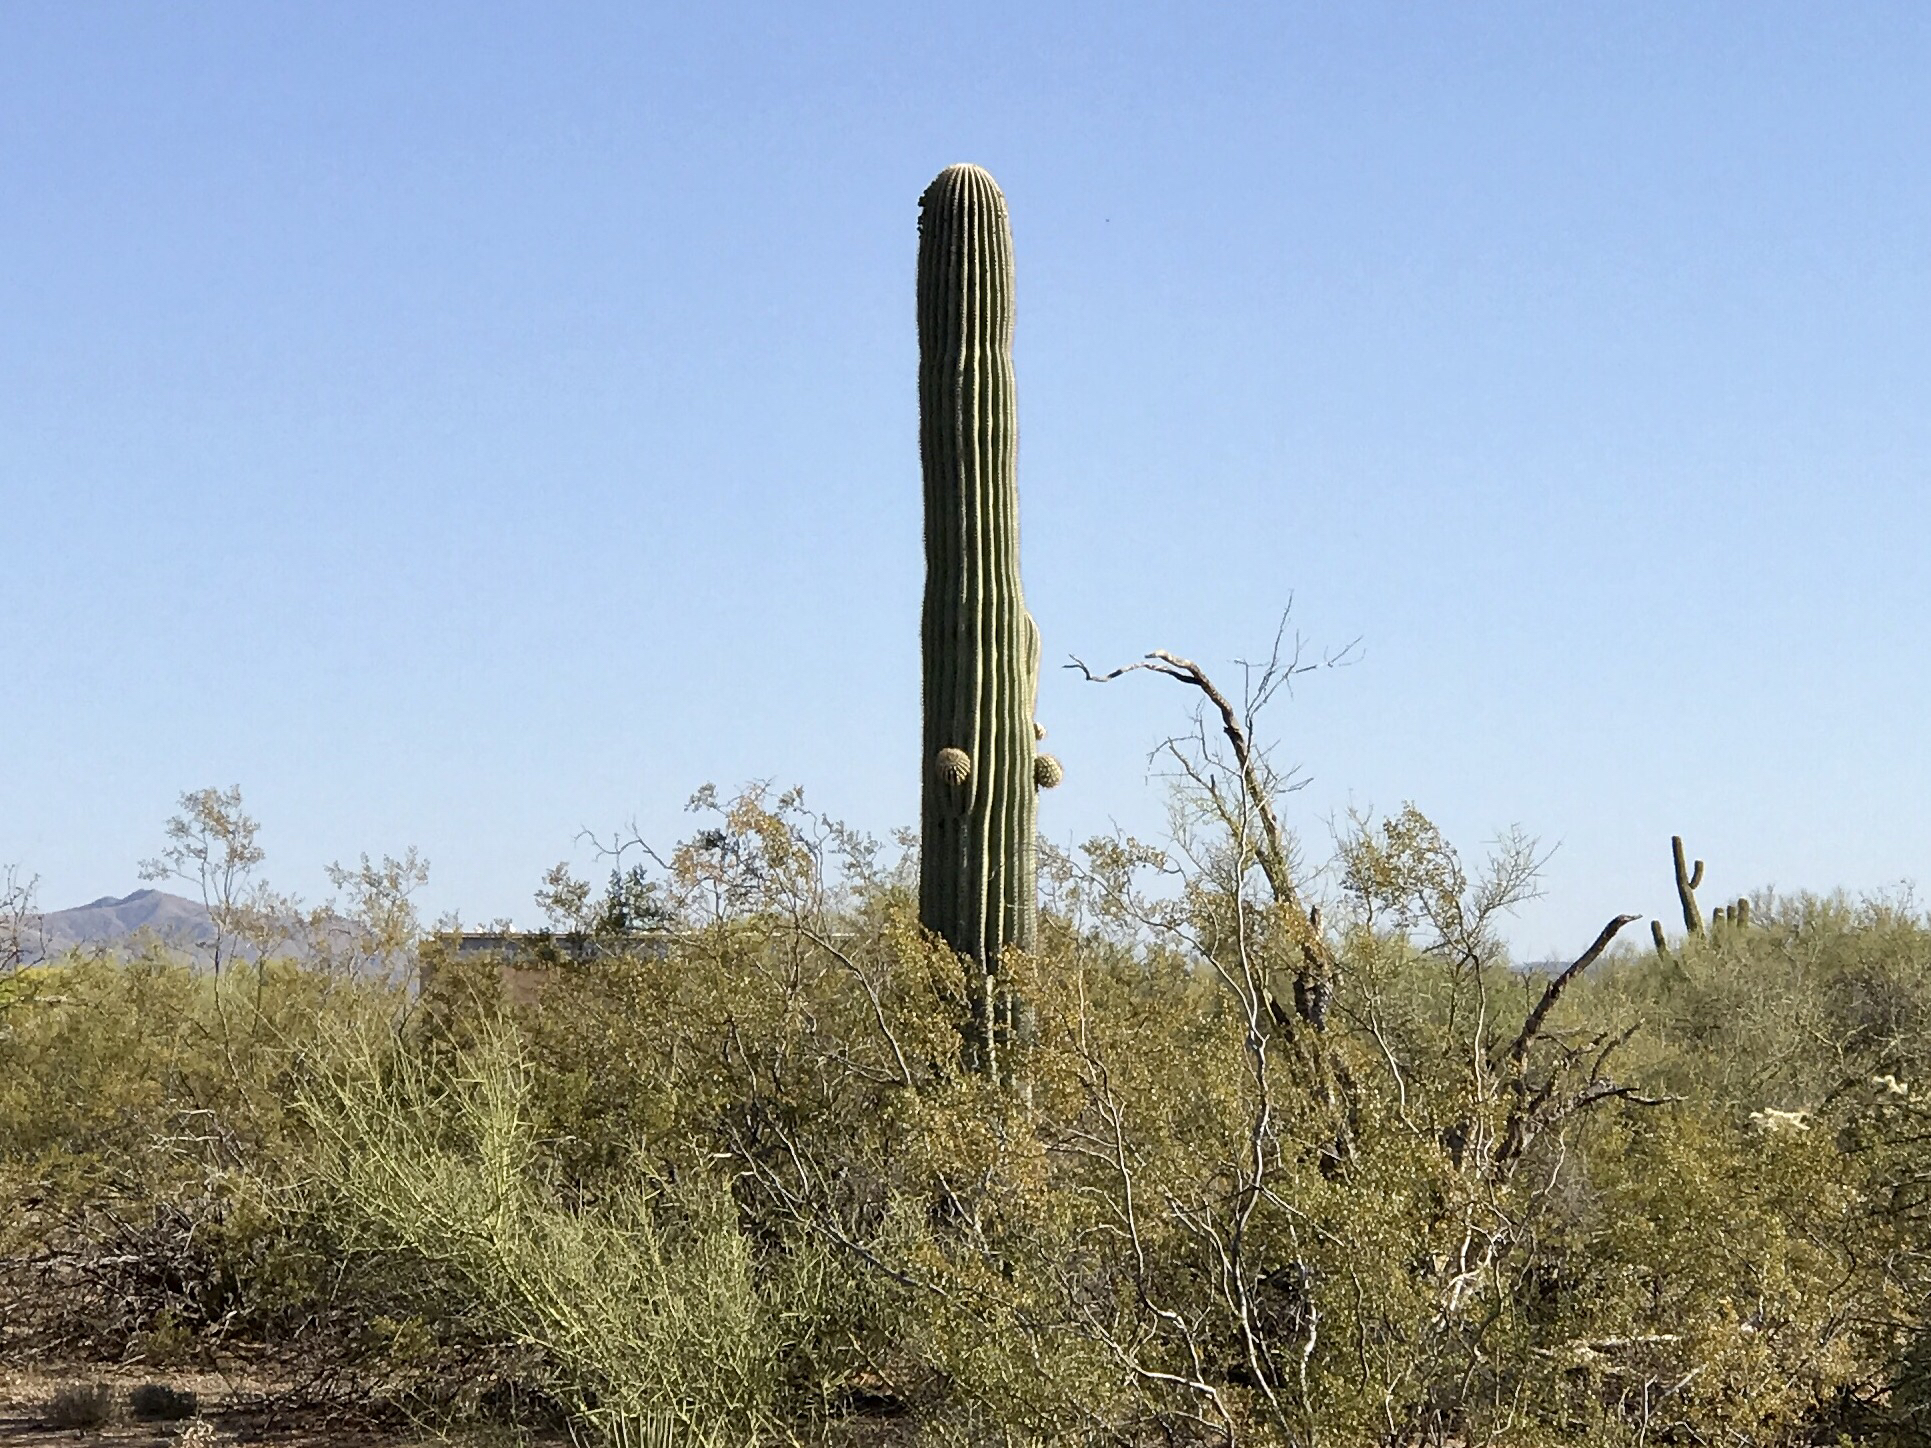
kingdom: Plantae
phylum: Tracheophyta
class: Magnoliopsida
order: Caryophyllales
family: Cactaceae
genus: Carnegiea
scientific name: Carnegiea gigantea
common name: Saguaro
